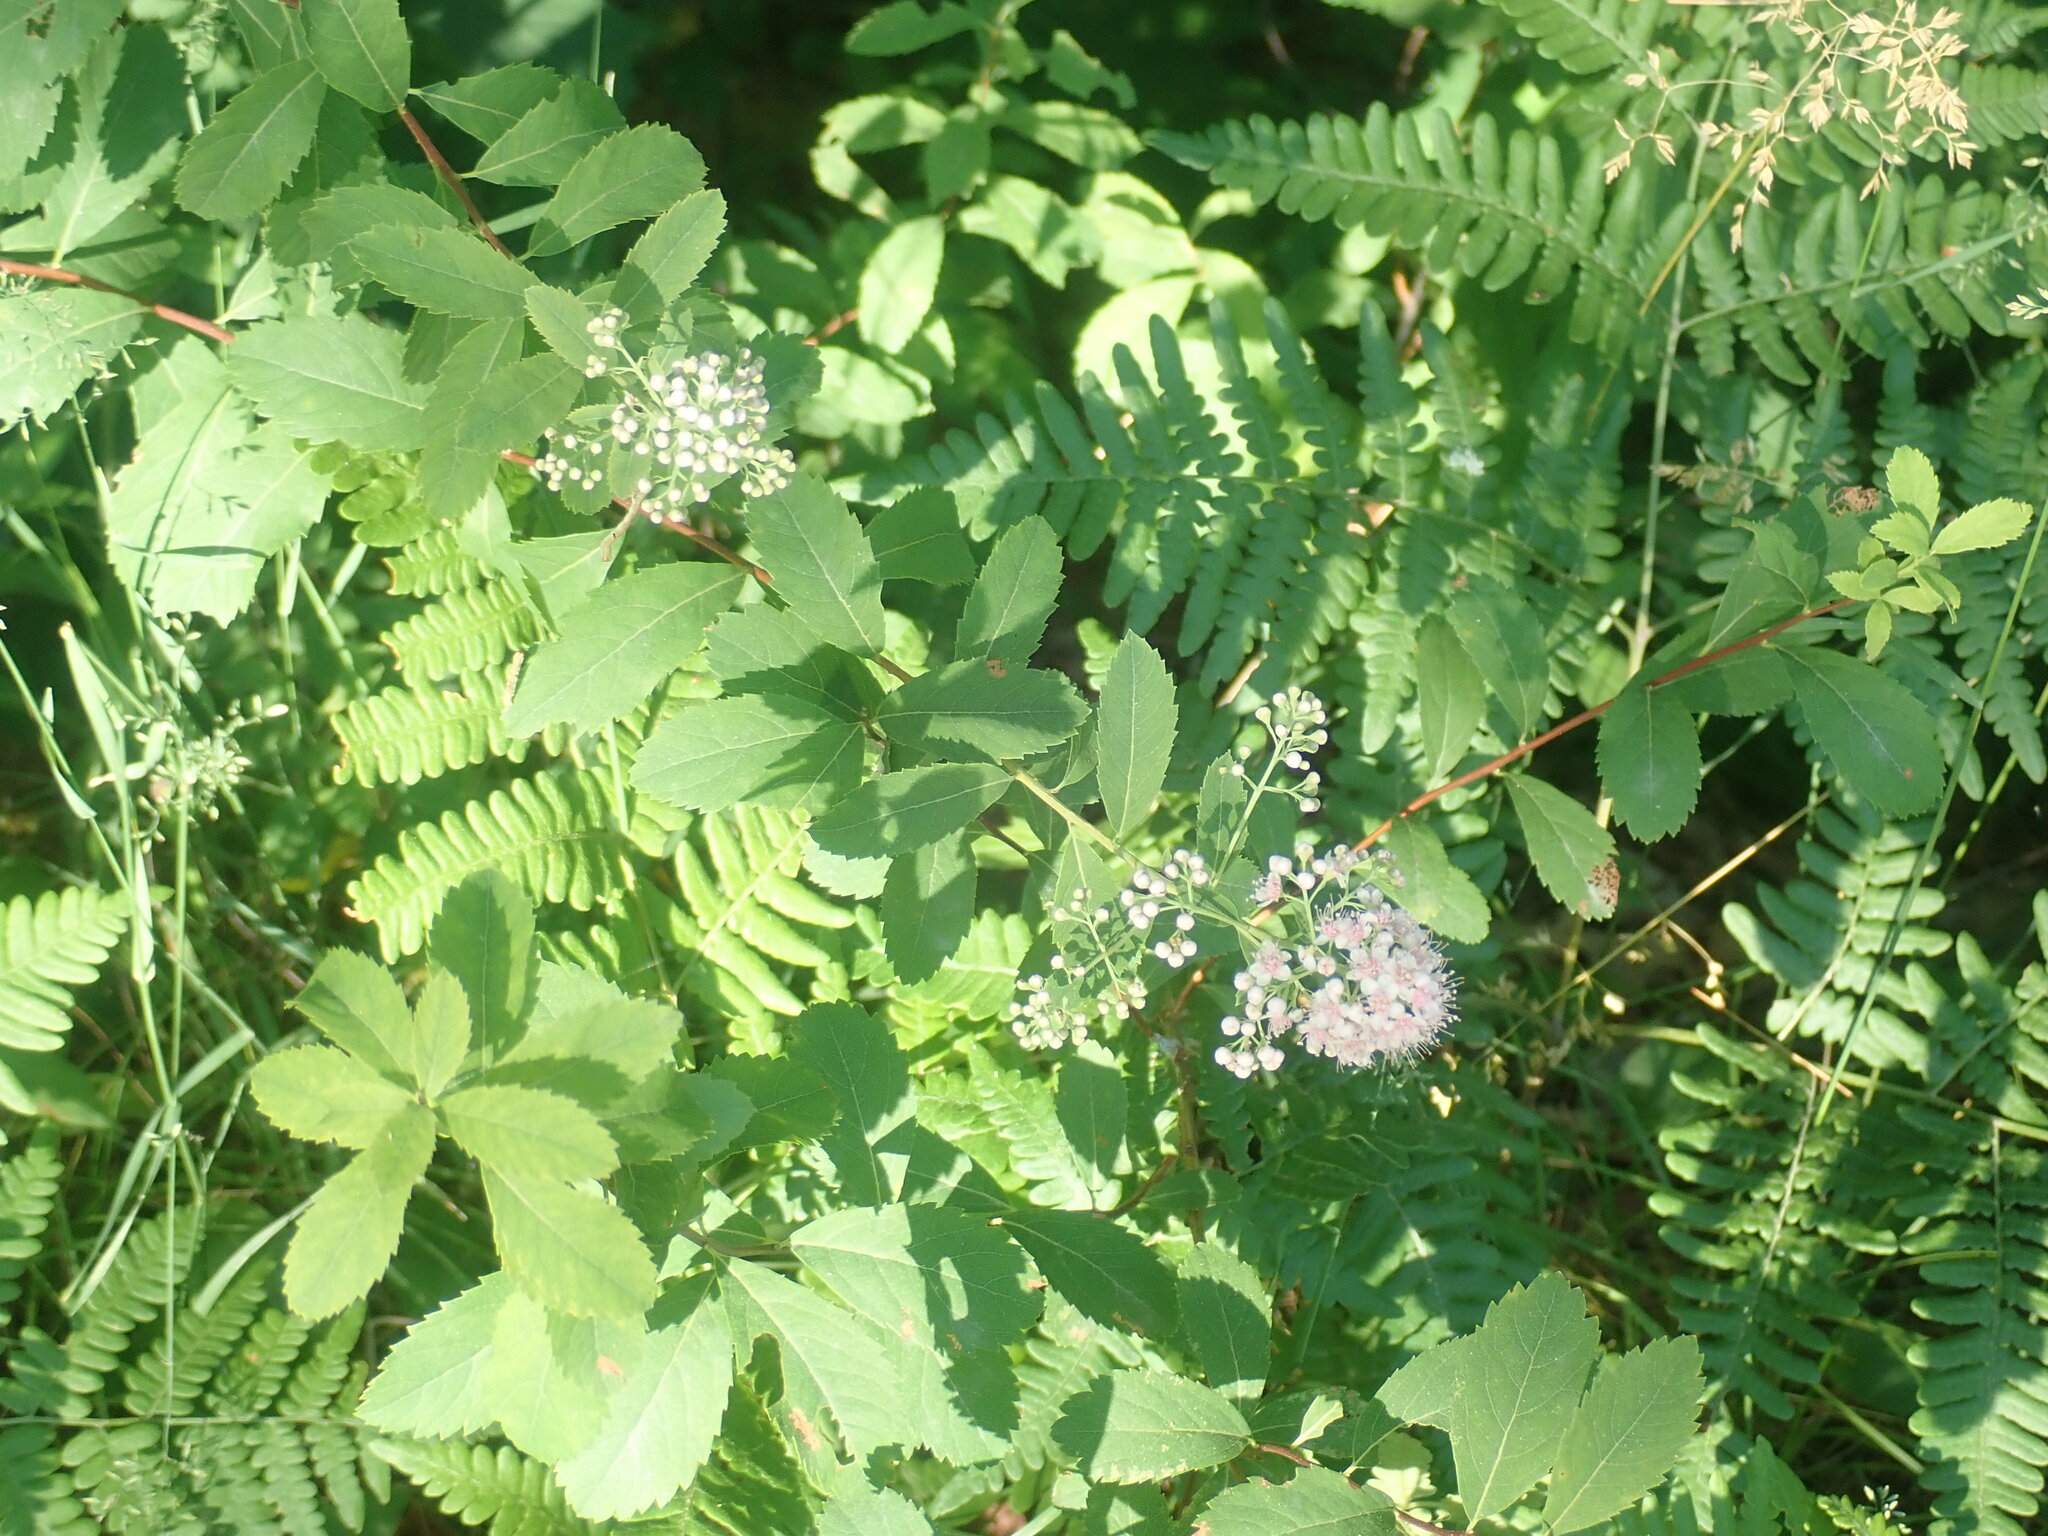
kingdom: Plantae
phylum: Tracheophyta
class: Magnoliopsida
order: Rosales
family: Rosaceae
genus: Spiraea
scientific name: Spiraea alba
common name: Pale bridewort
